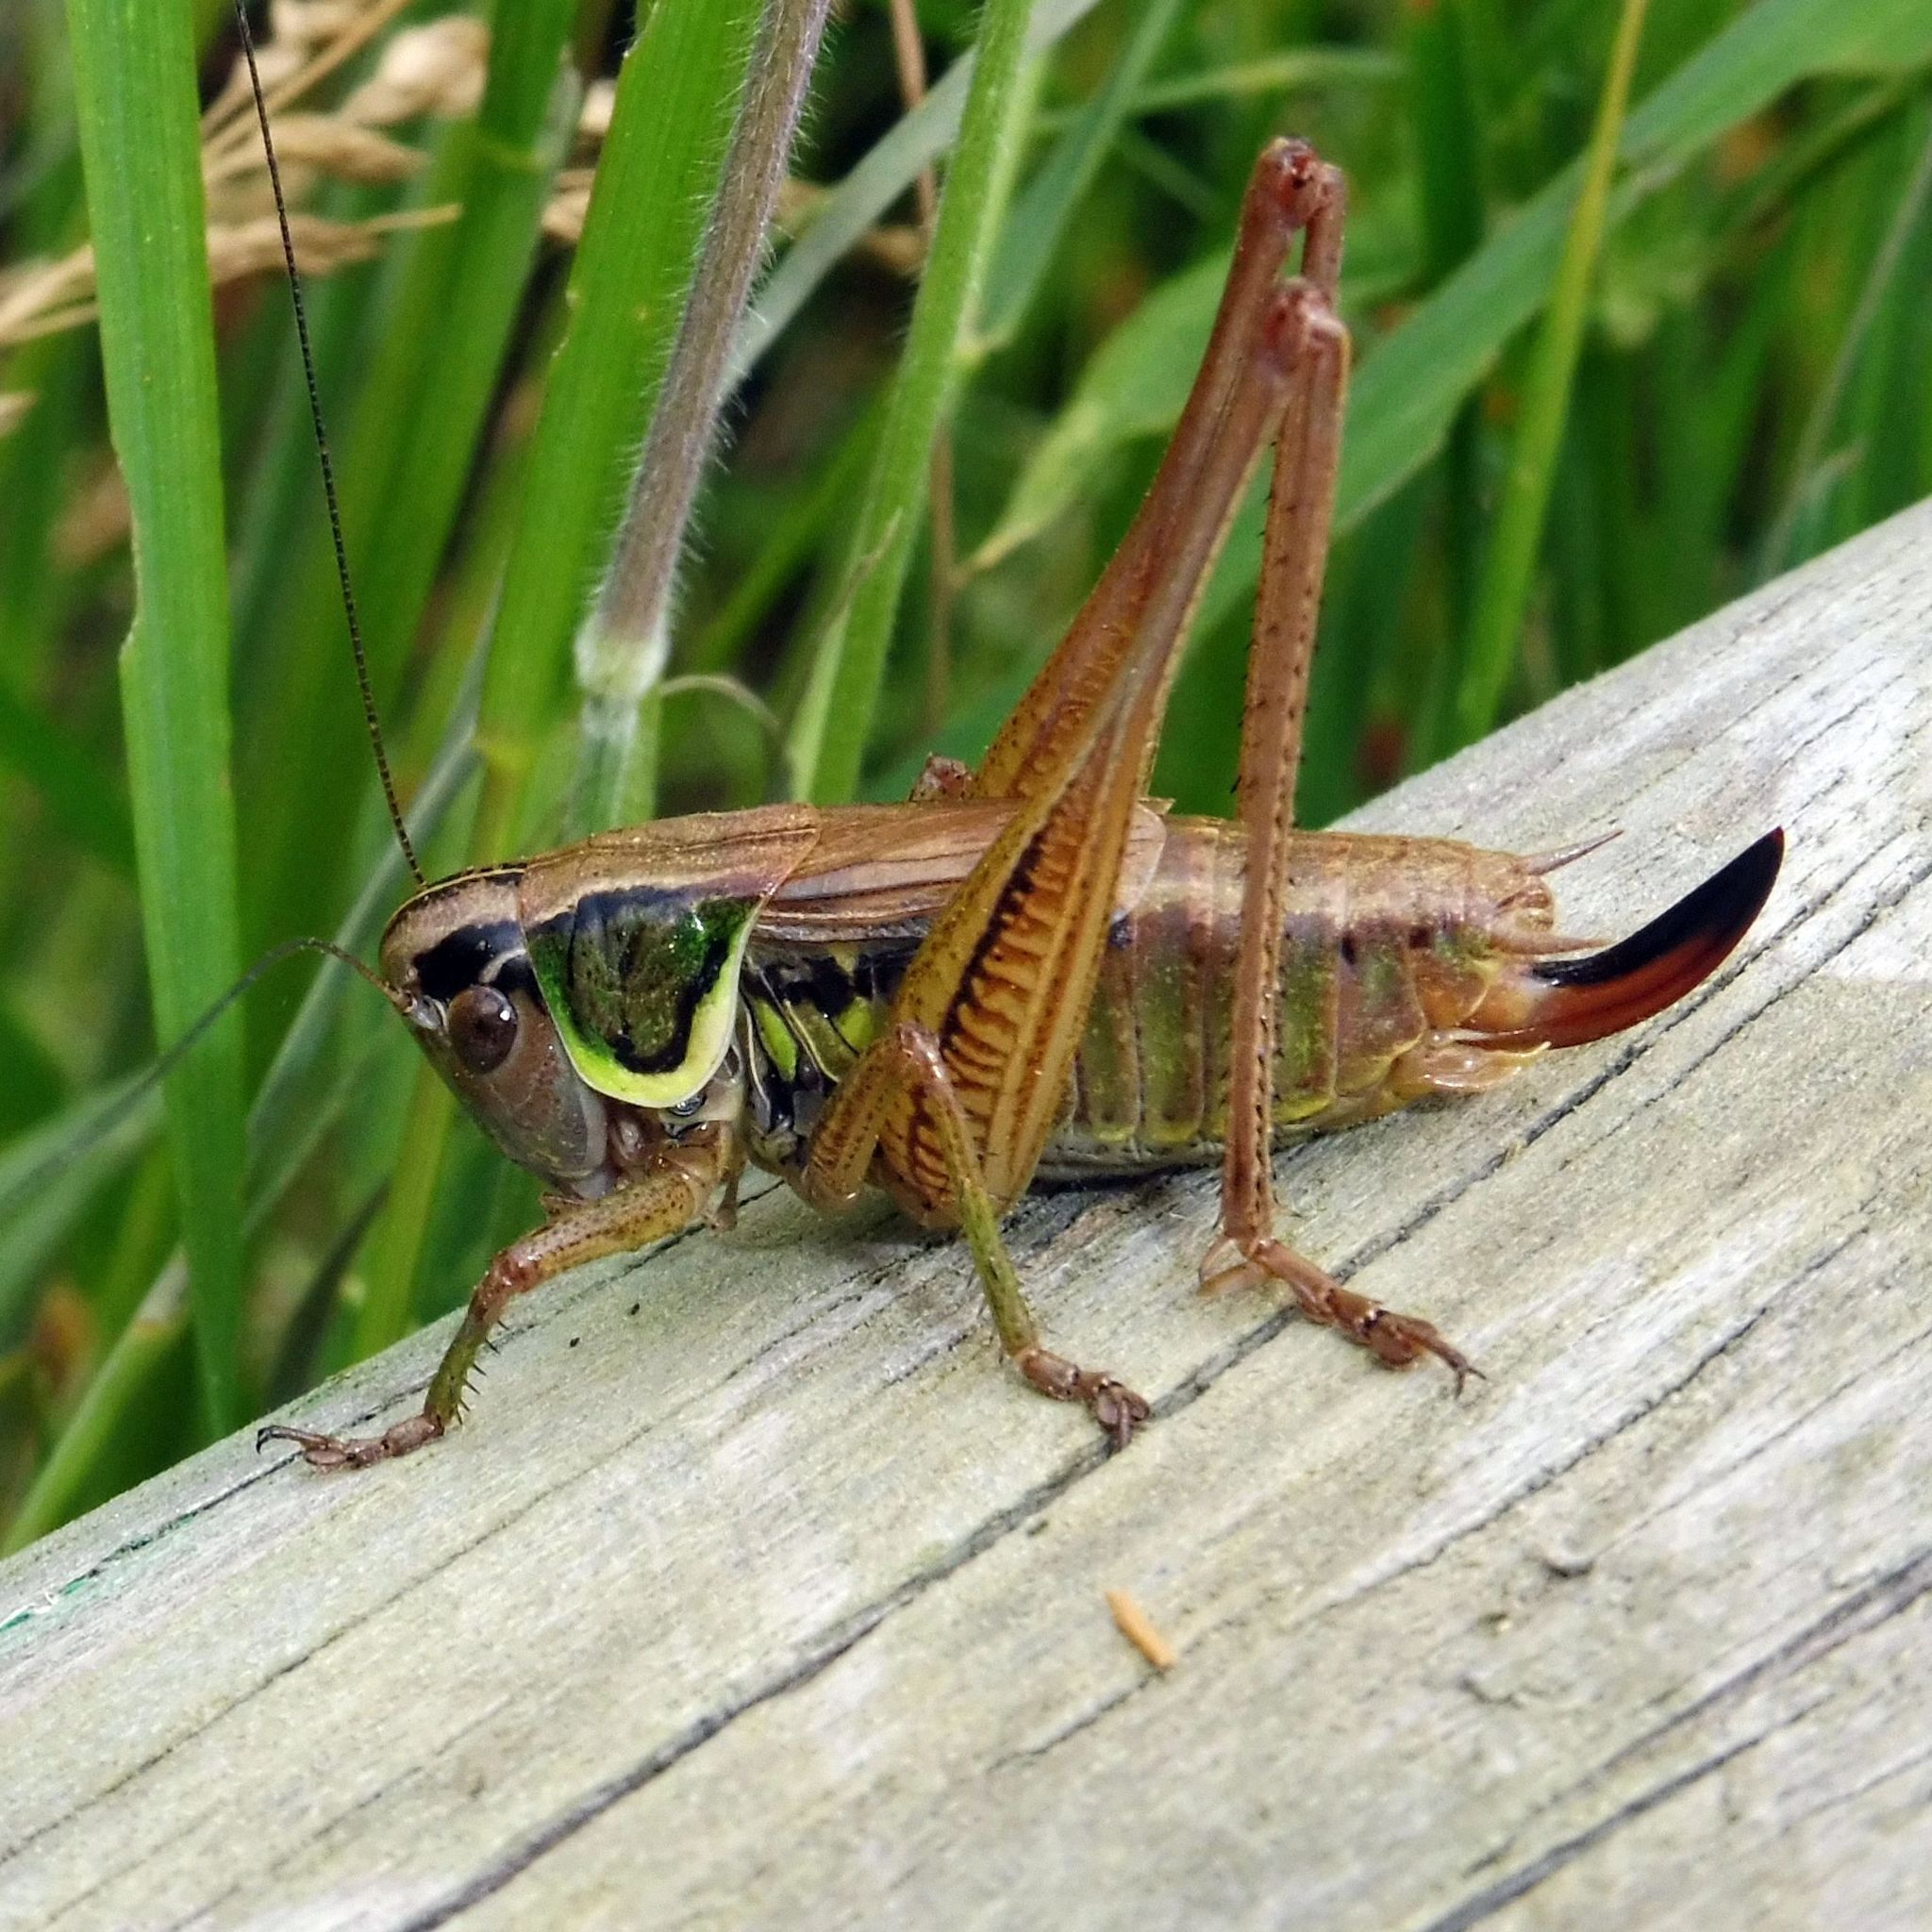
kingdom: Animalia
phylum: Arthropoda
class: Insecta
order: Orthoptera
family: Tettigoniidae
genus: Roeseliana
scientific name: Roeseliana roeselii
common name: Roesel's bush cricket
